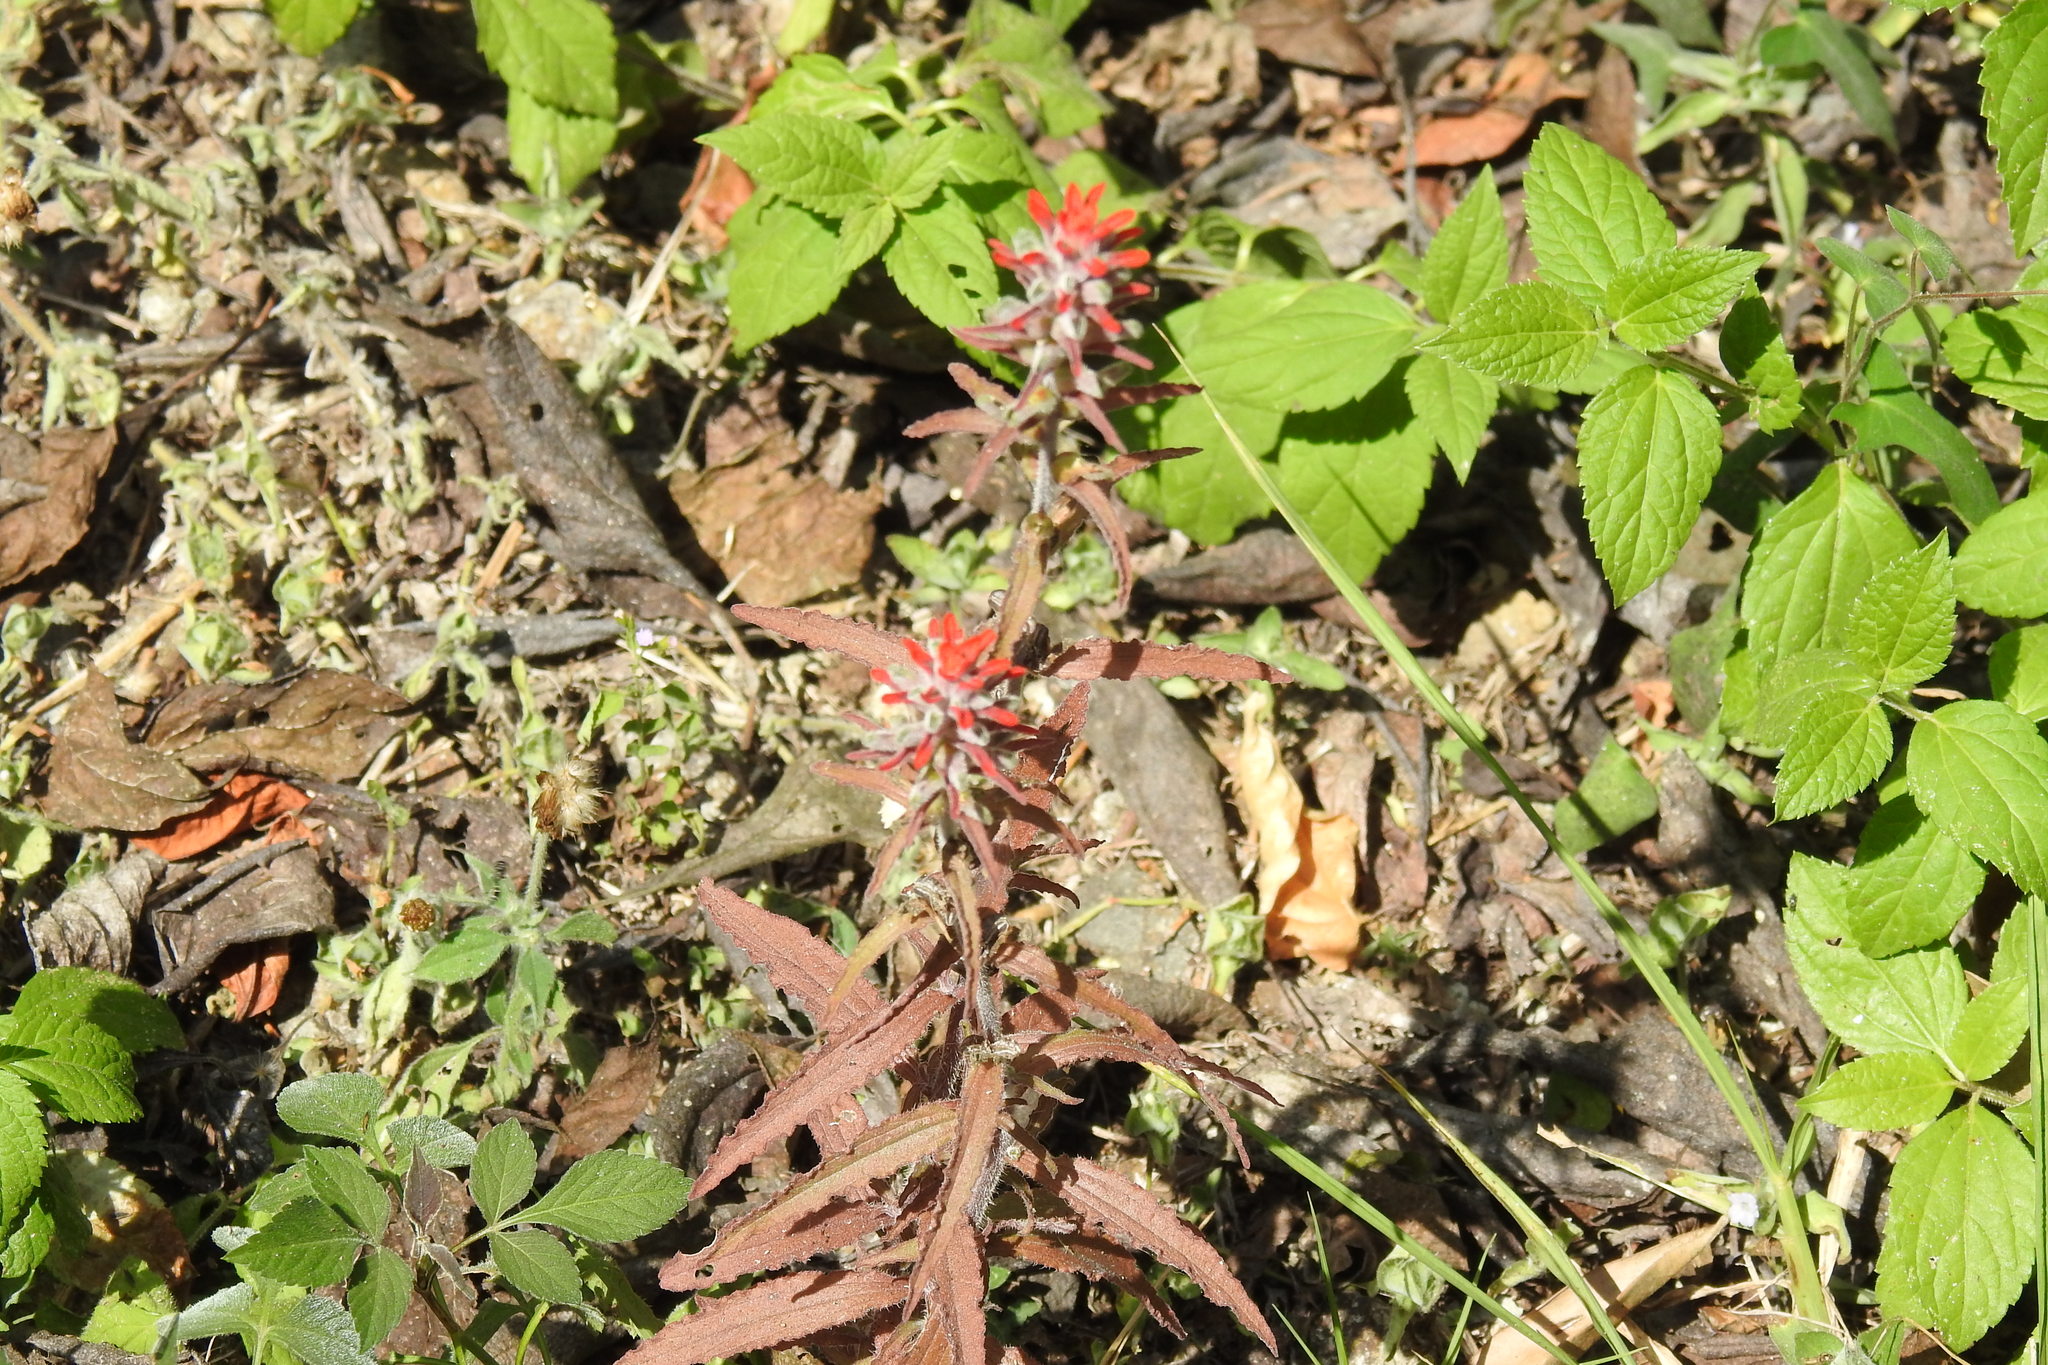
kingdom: Plantae
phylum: Tracheophyta
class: Magnoliopsida
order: Lamiales
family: Orobanchaceae
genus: Castilleja
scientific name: Castilleja arvensis
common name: Indian paintbrush
